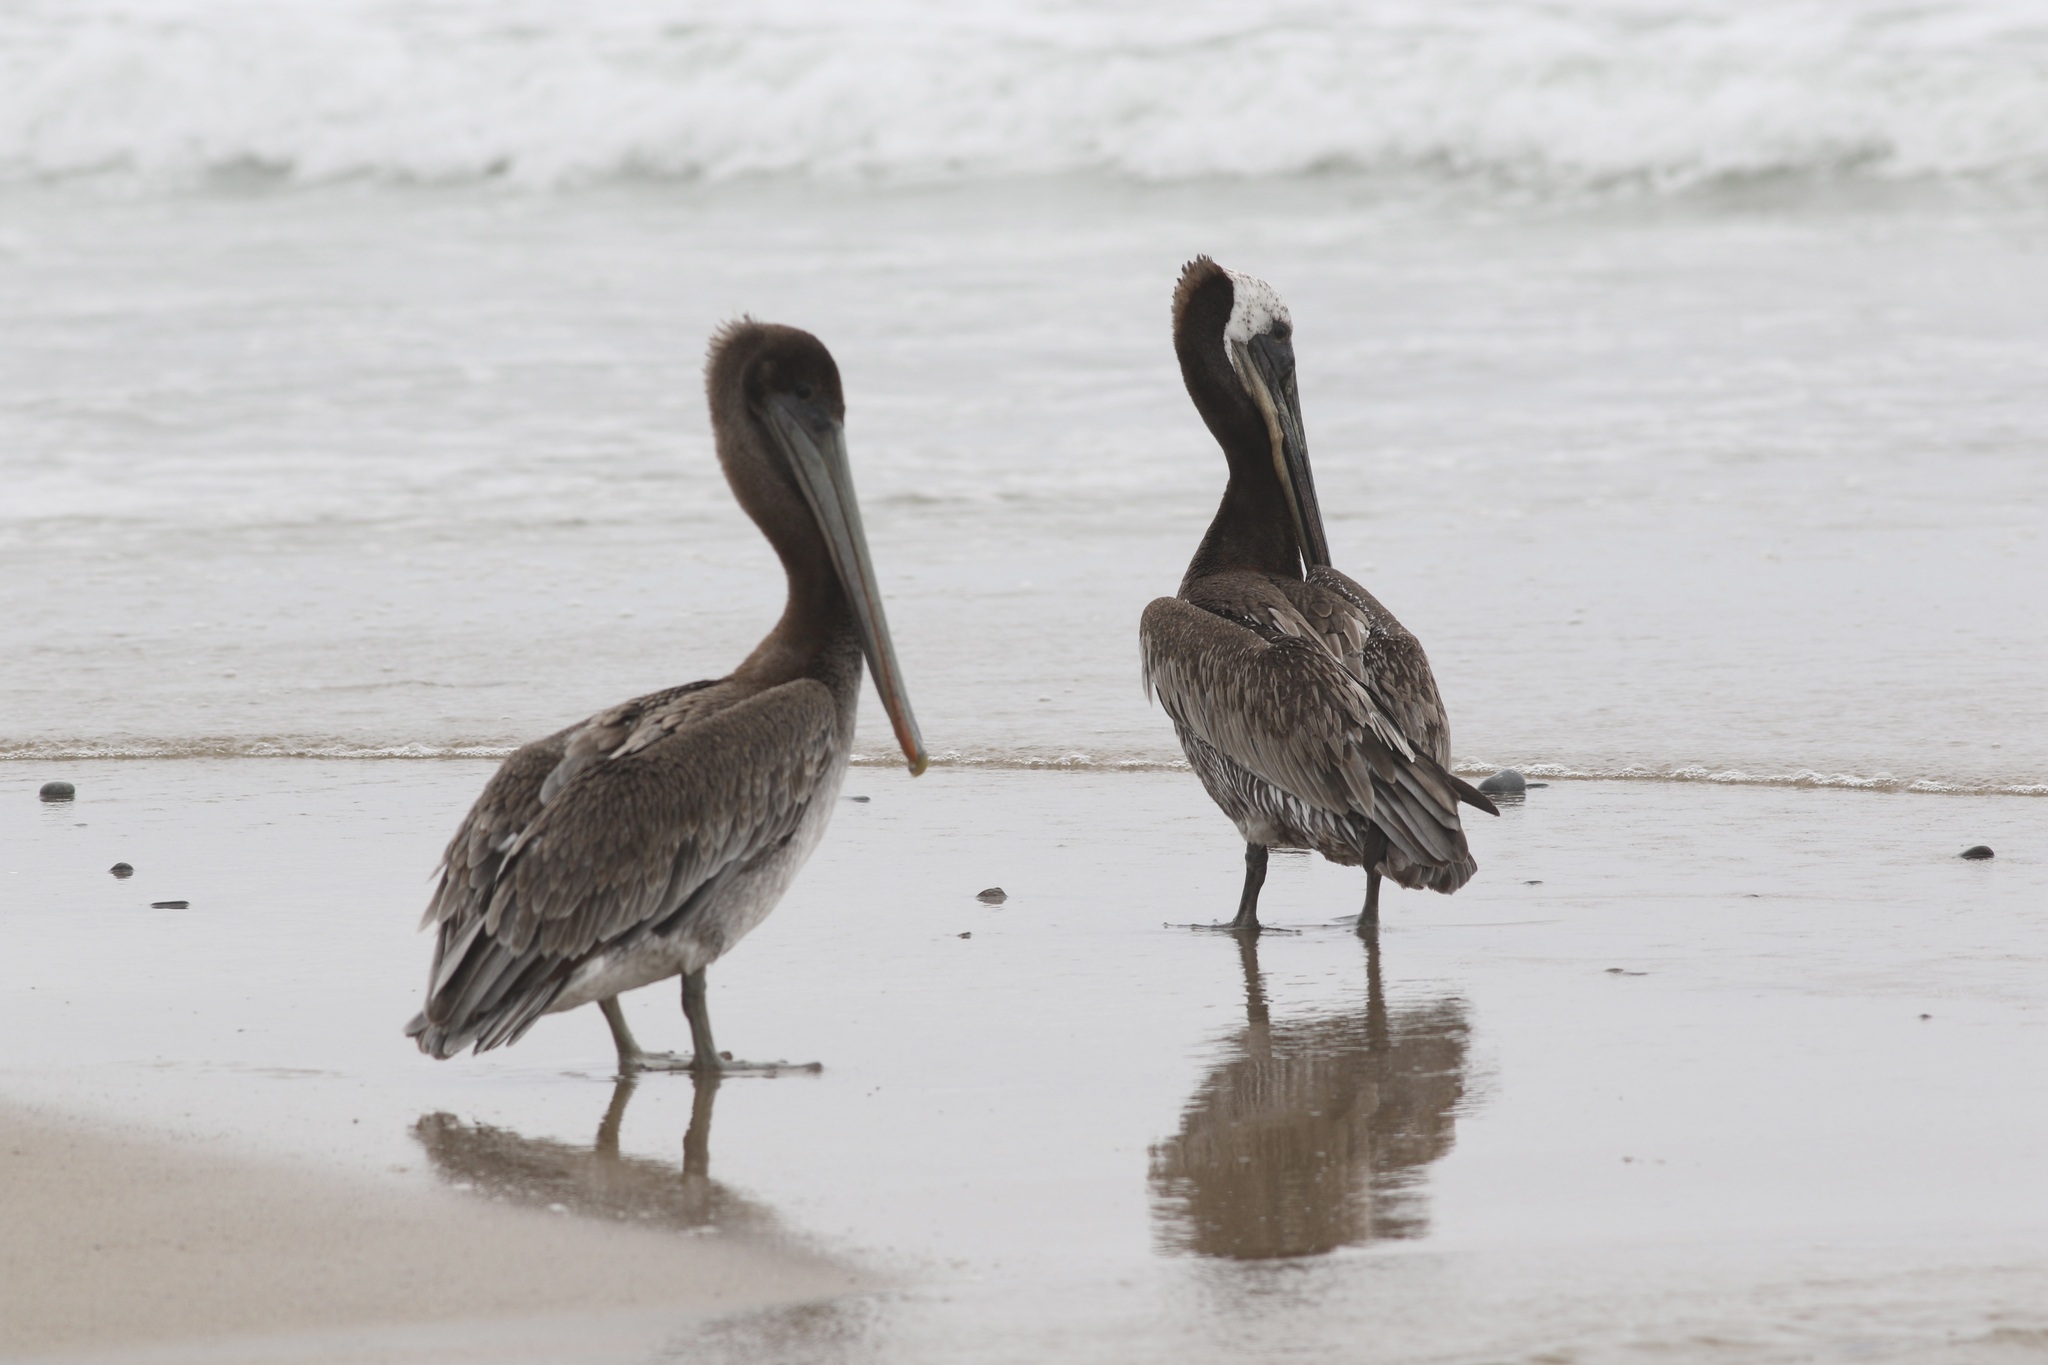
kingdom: Animalia
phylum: Chordata
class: Aves
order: Pelecaniformes
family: Pelecanidae
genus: Pelecanus
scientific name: Pelecanus occidentalis
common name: Brown pelican
